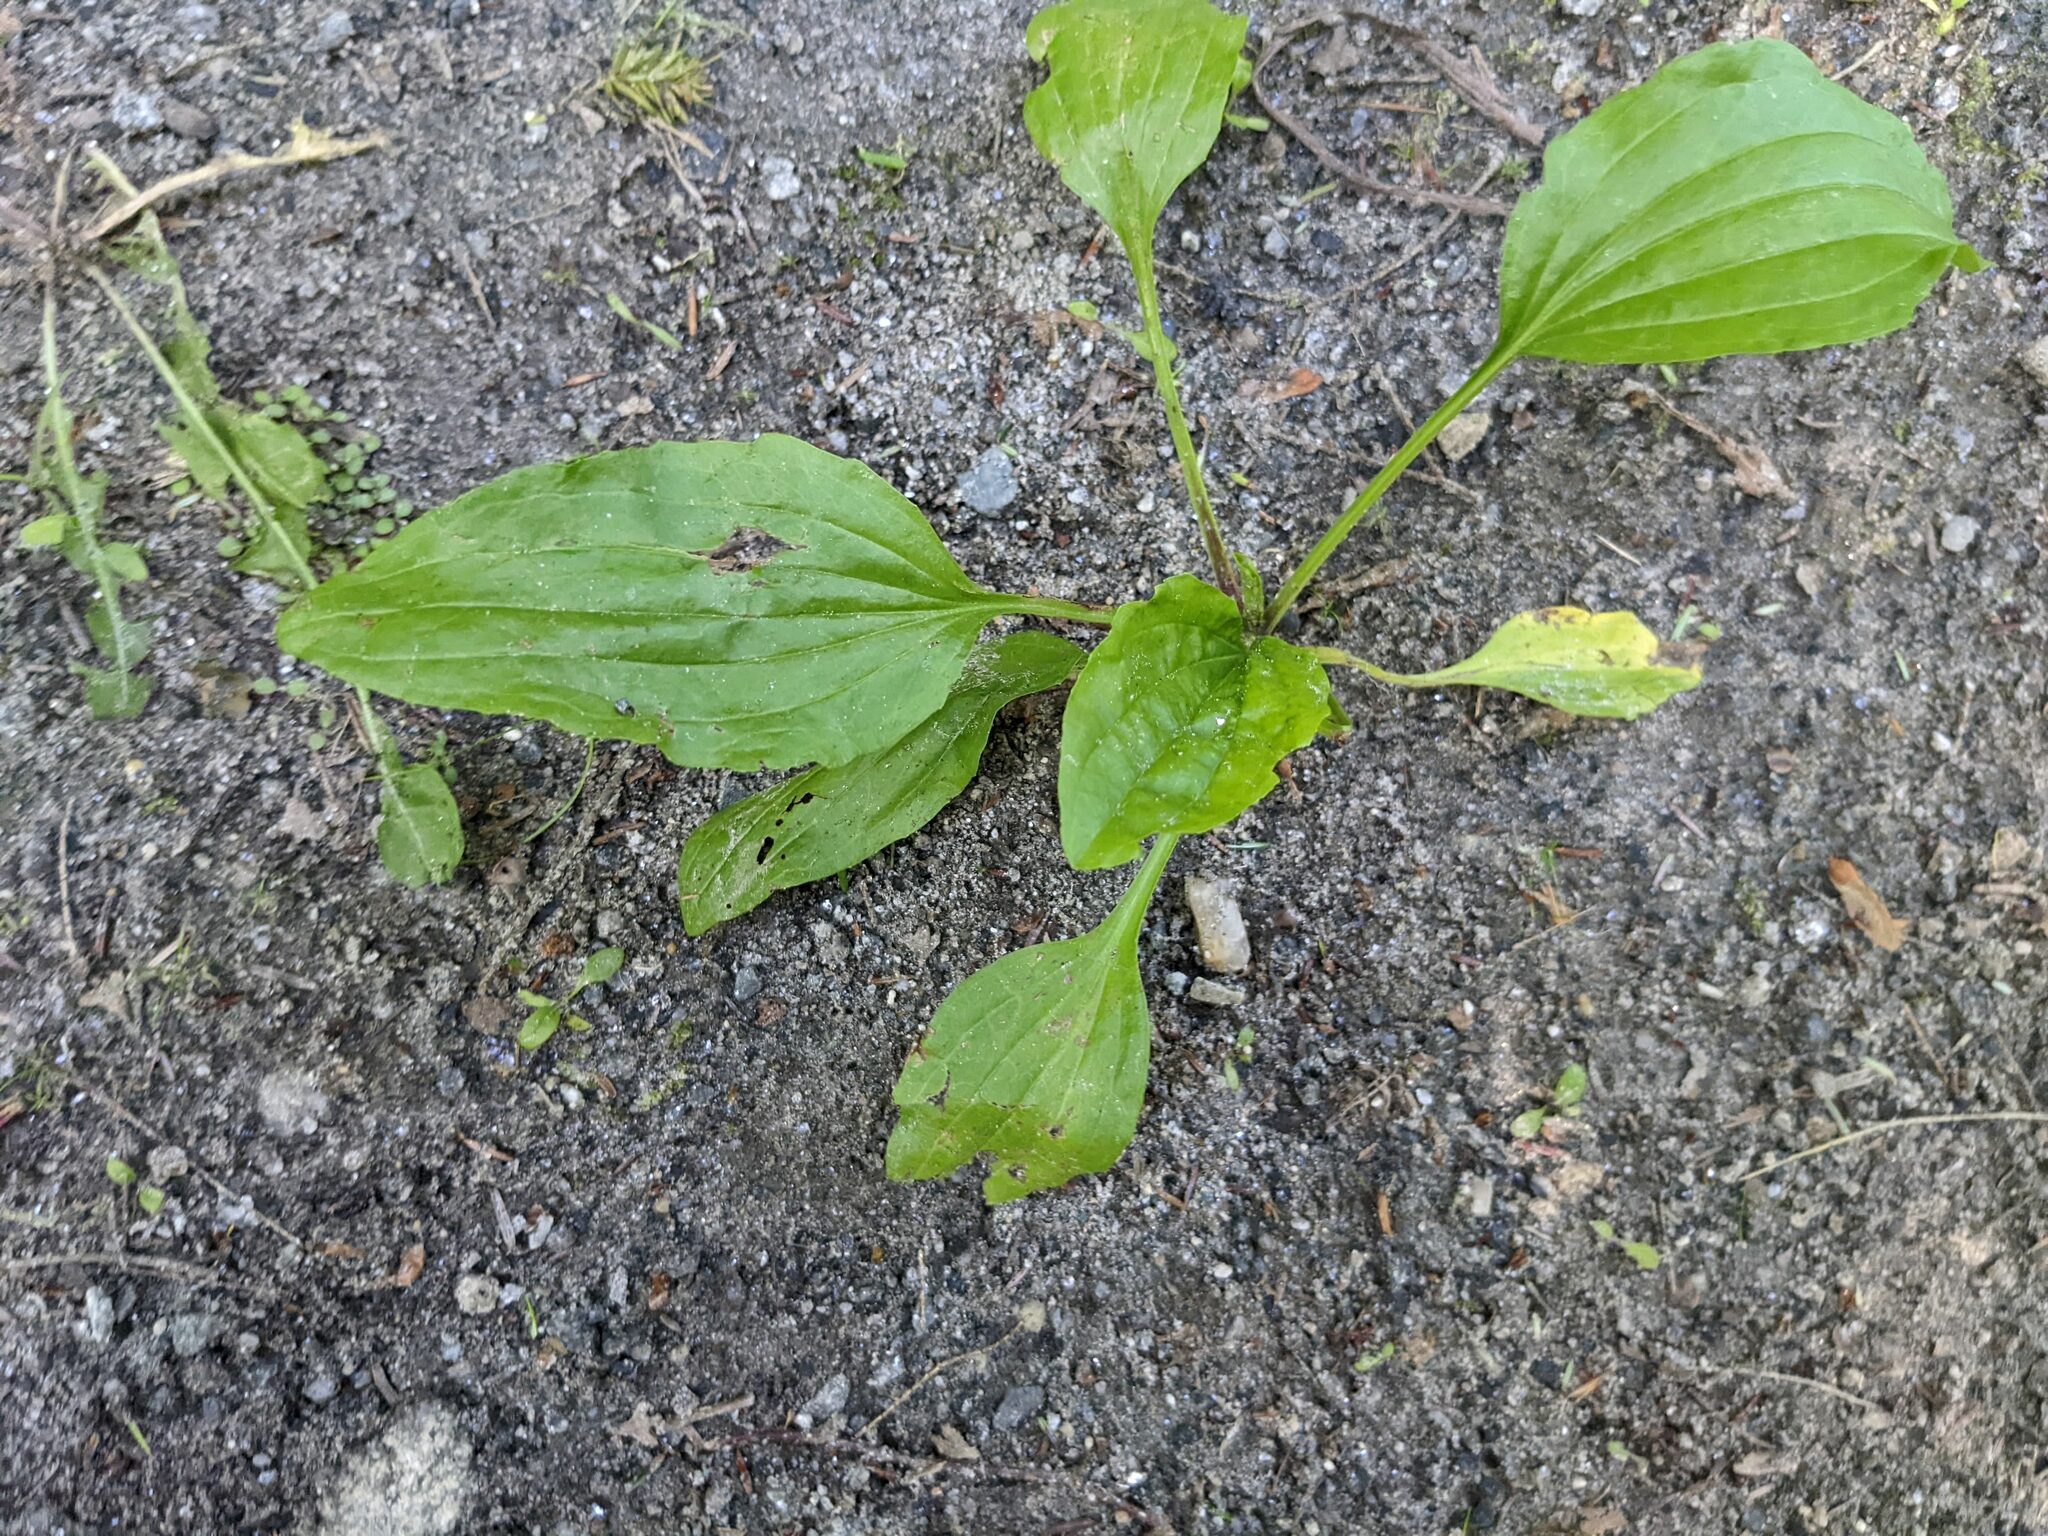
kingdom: Plantae
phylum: Tracheophyta
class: Magnoliopsida
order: Lamiales
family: Plantaginaceae
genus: Plantago
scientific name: Plantago rugelii
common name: American plantain
